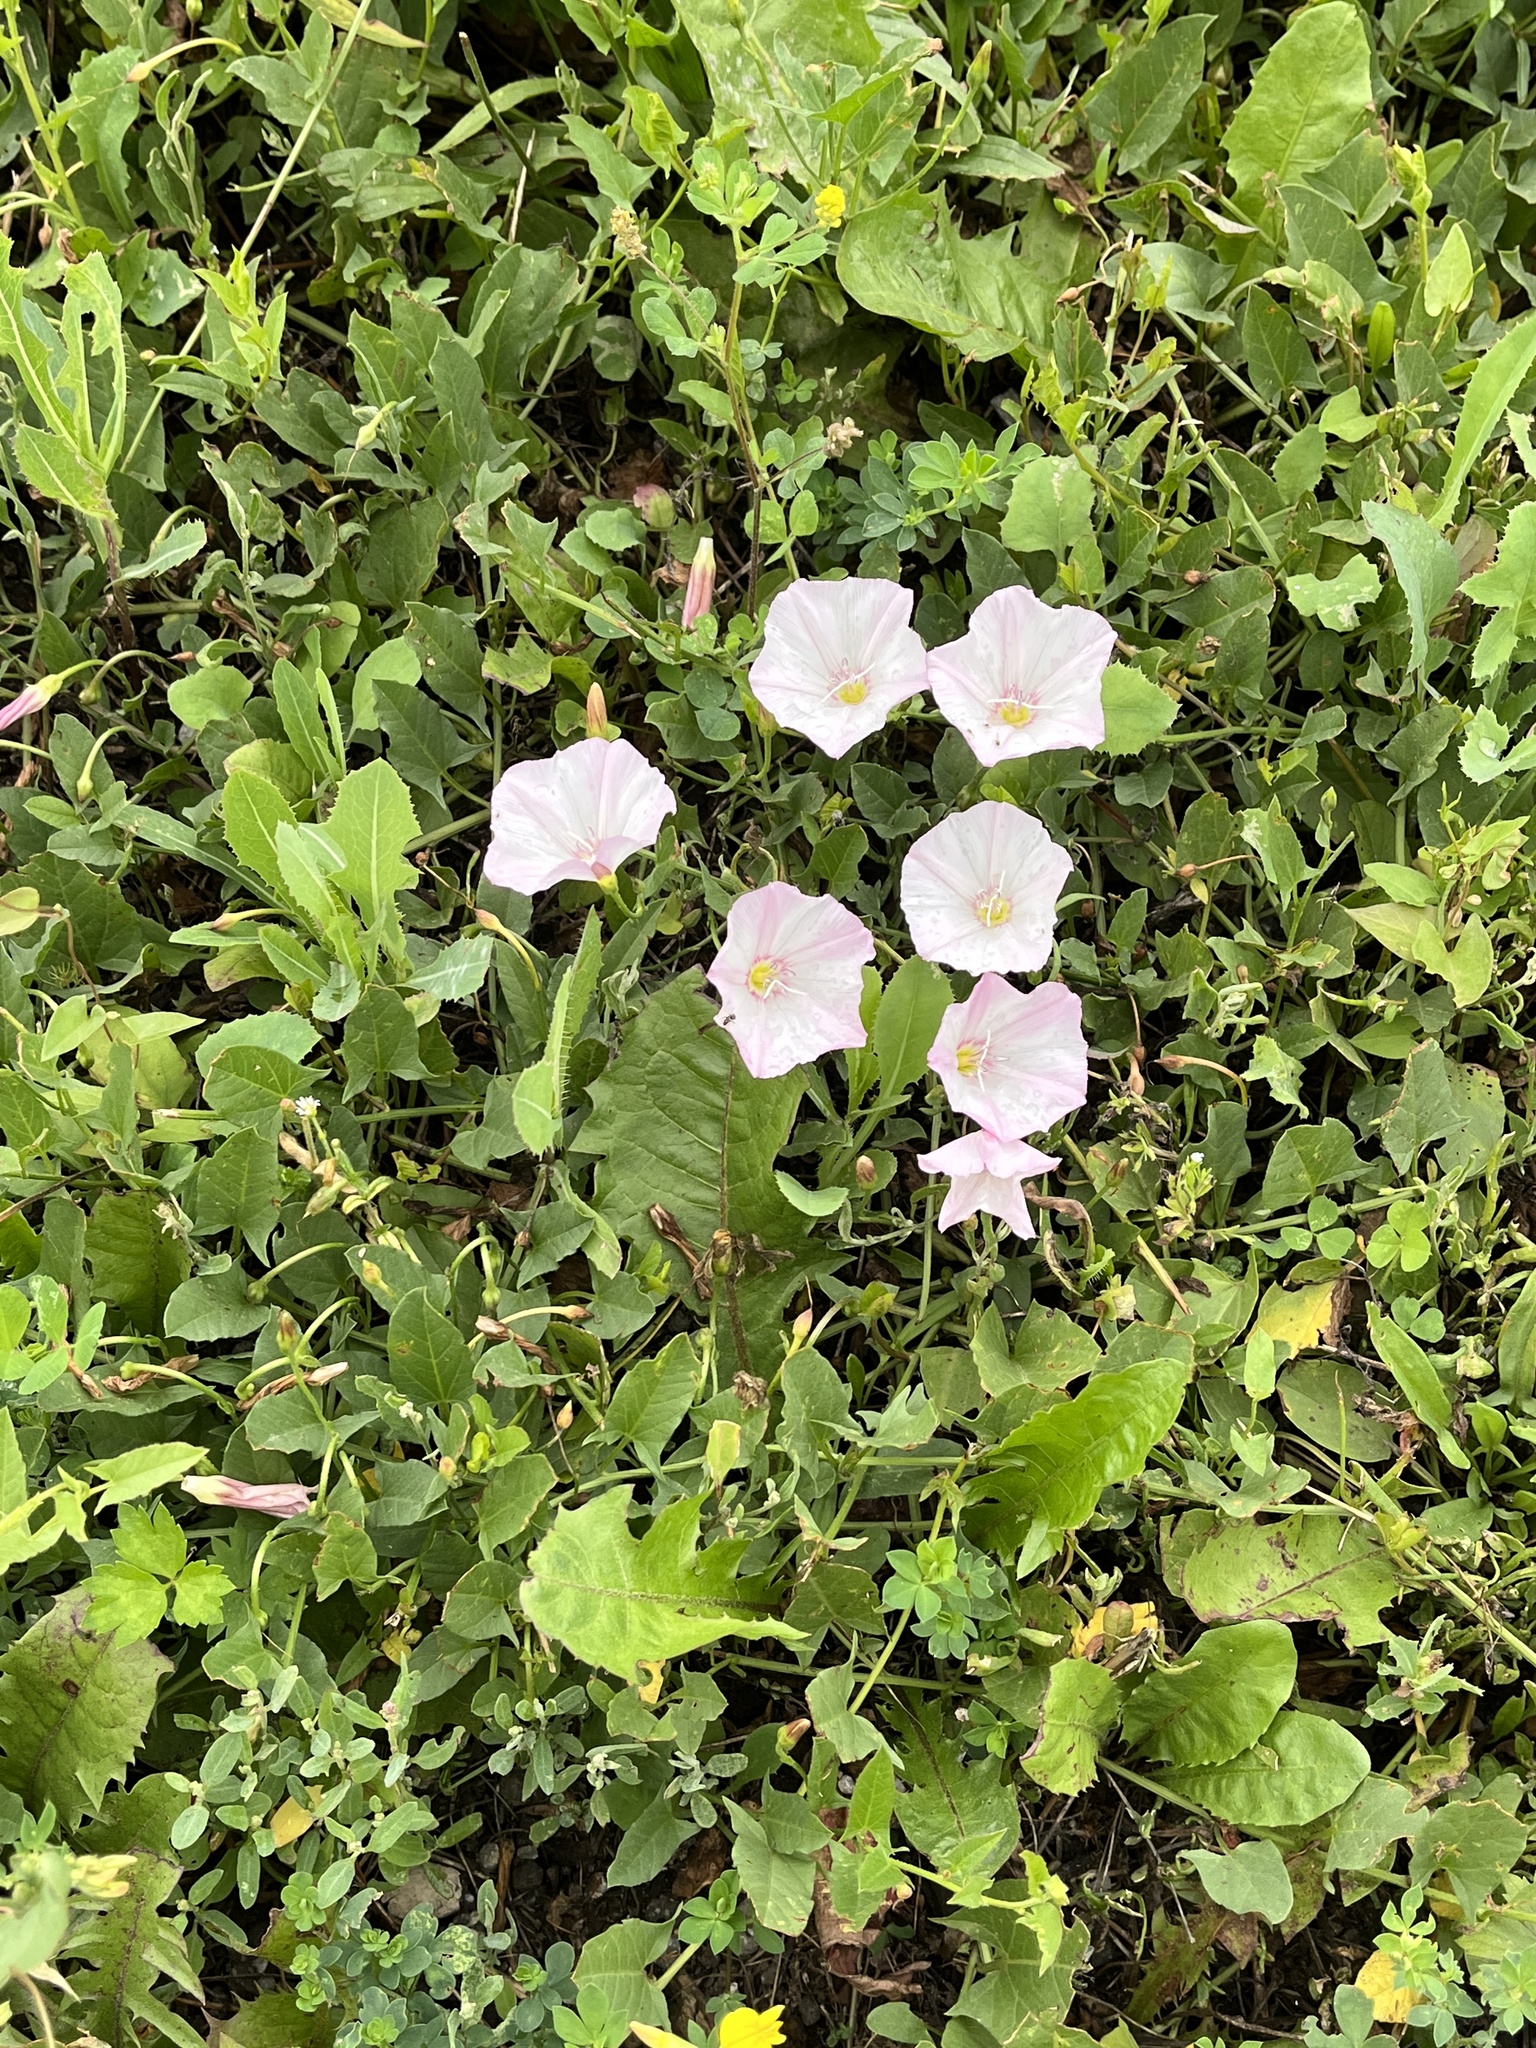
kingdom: Plantae
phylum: Tracheophyta
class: Magnoliopsida
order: Solanales
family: Convolvulaceae
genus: Convolvulus
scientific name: Convolvulus arvensis
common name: Field bindweed
